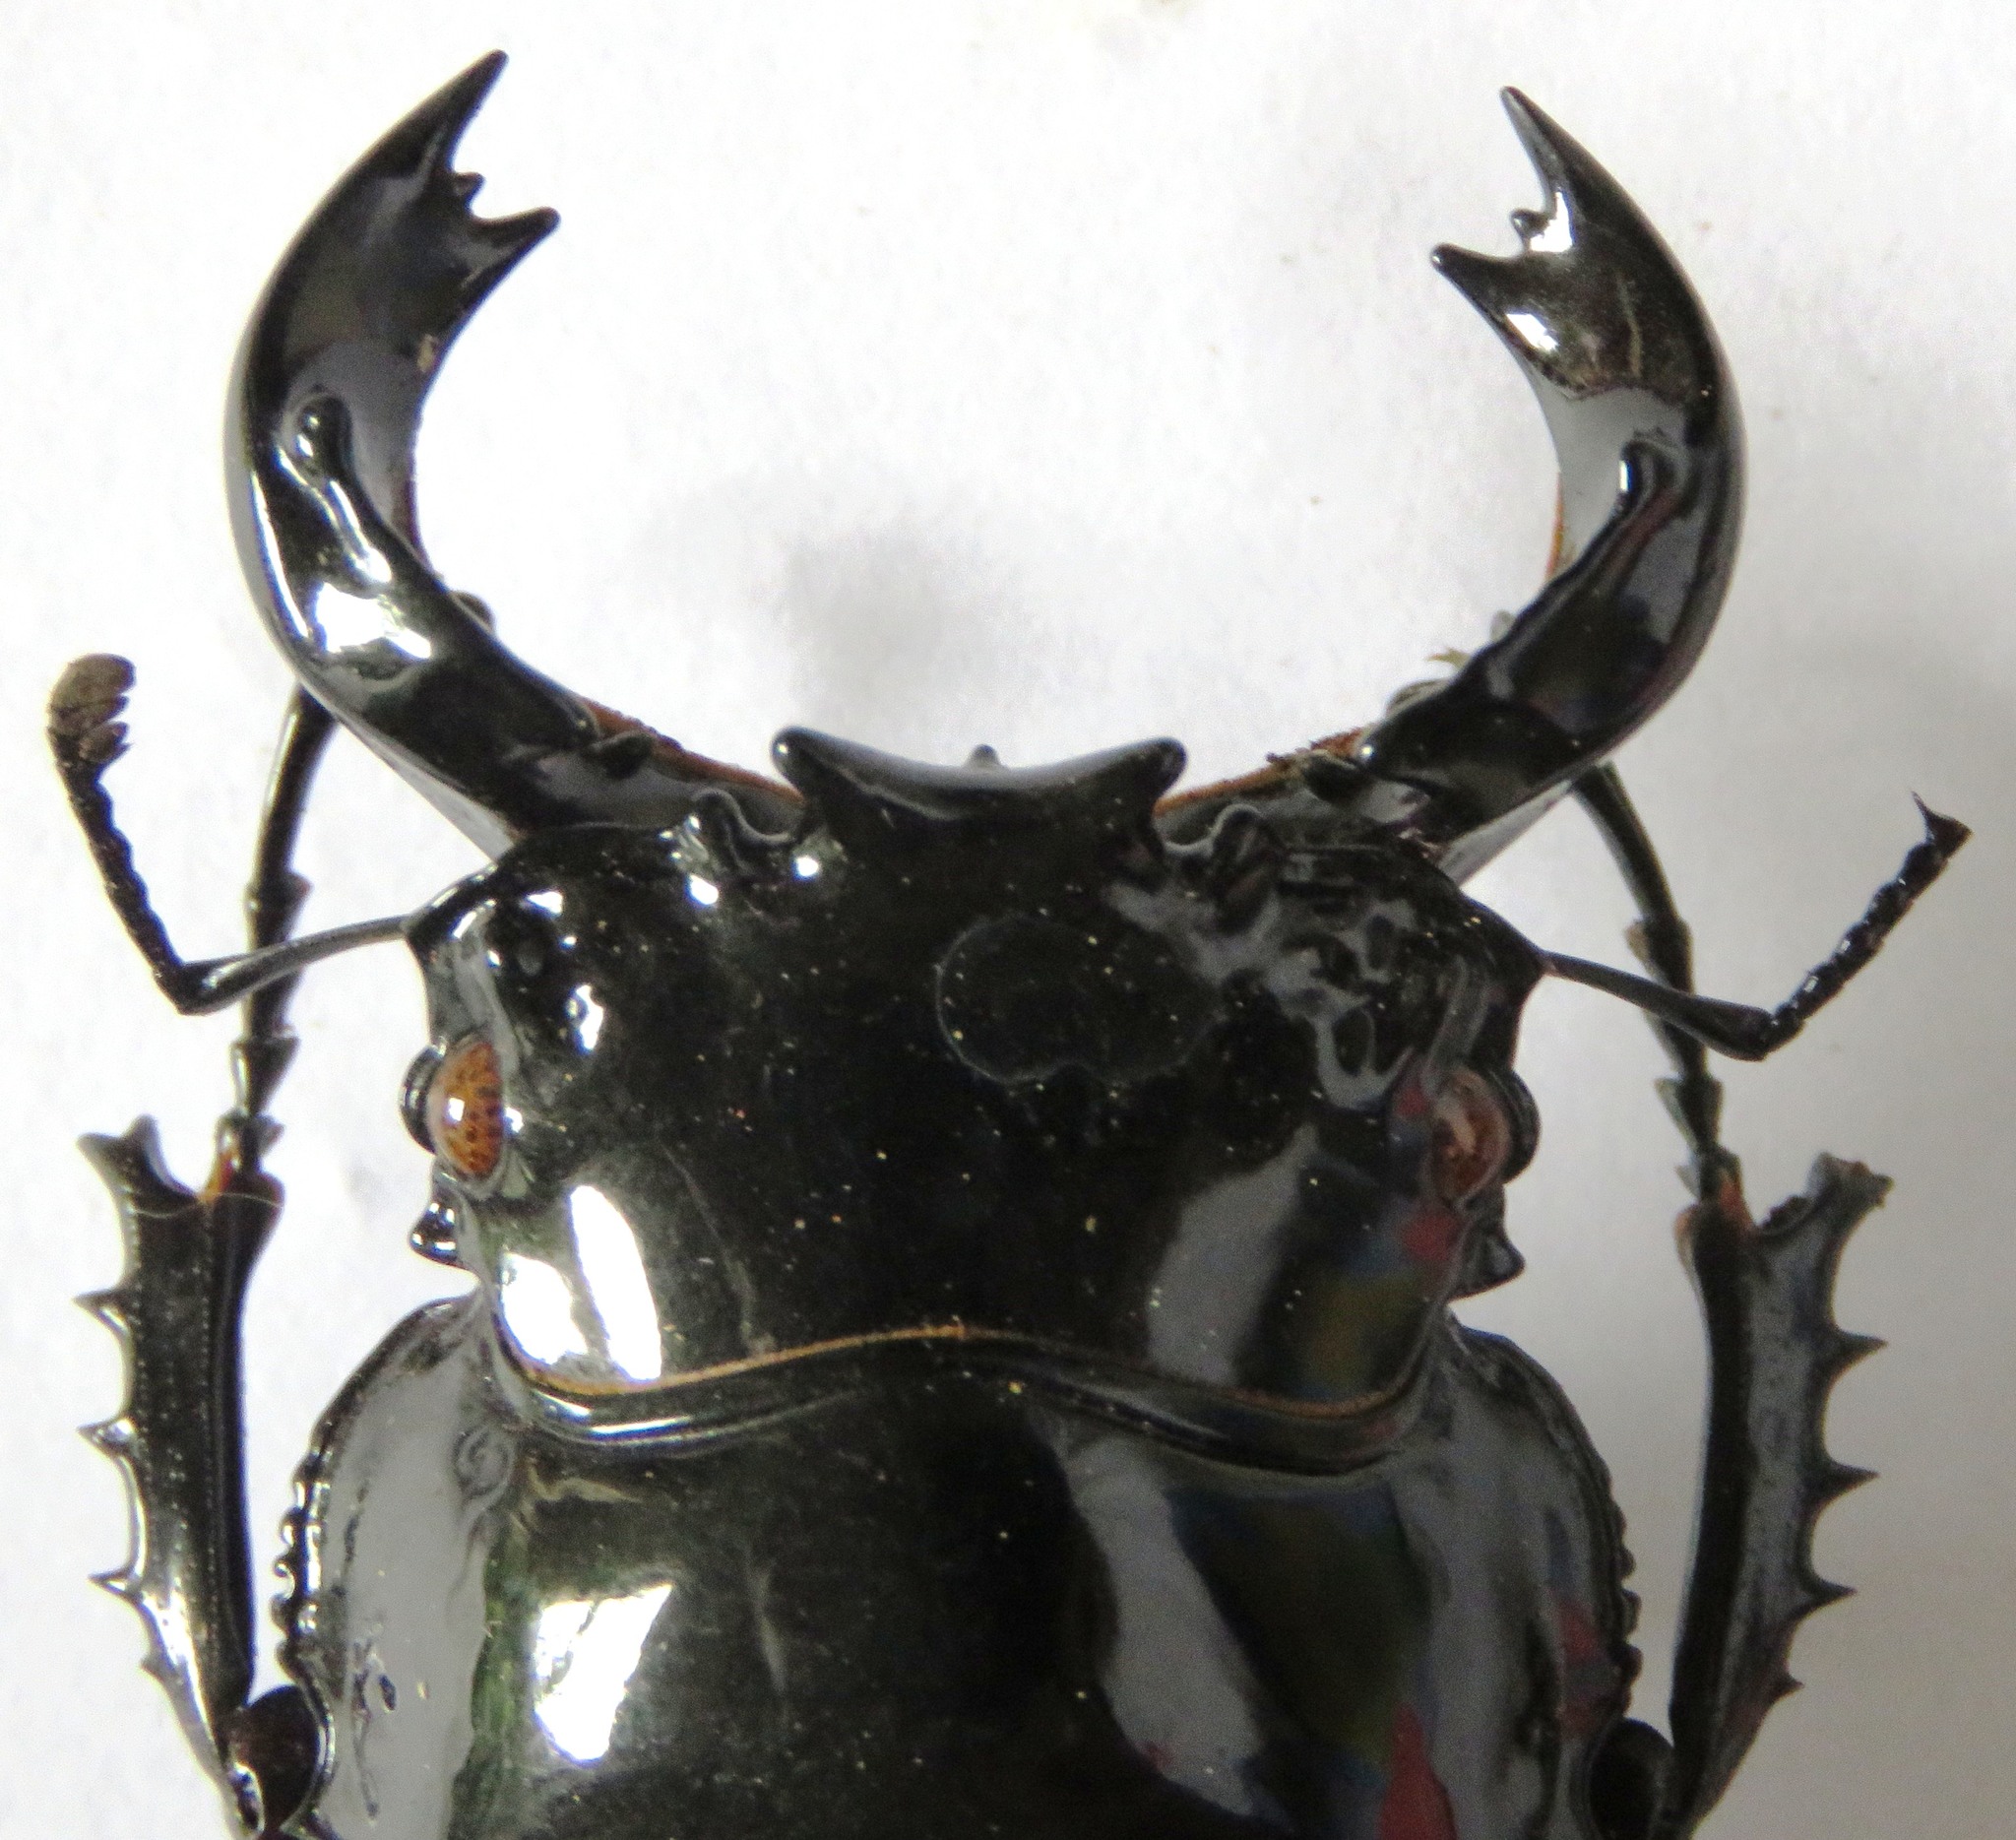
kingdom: Animalia
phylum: Arthropoda
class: Insecta
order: Coleoptera
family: Lucanidae
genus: Mesotopus
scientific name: Mesotopus imperator
